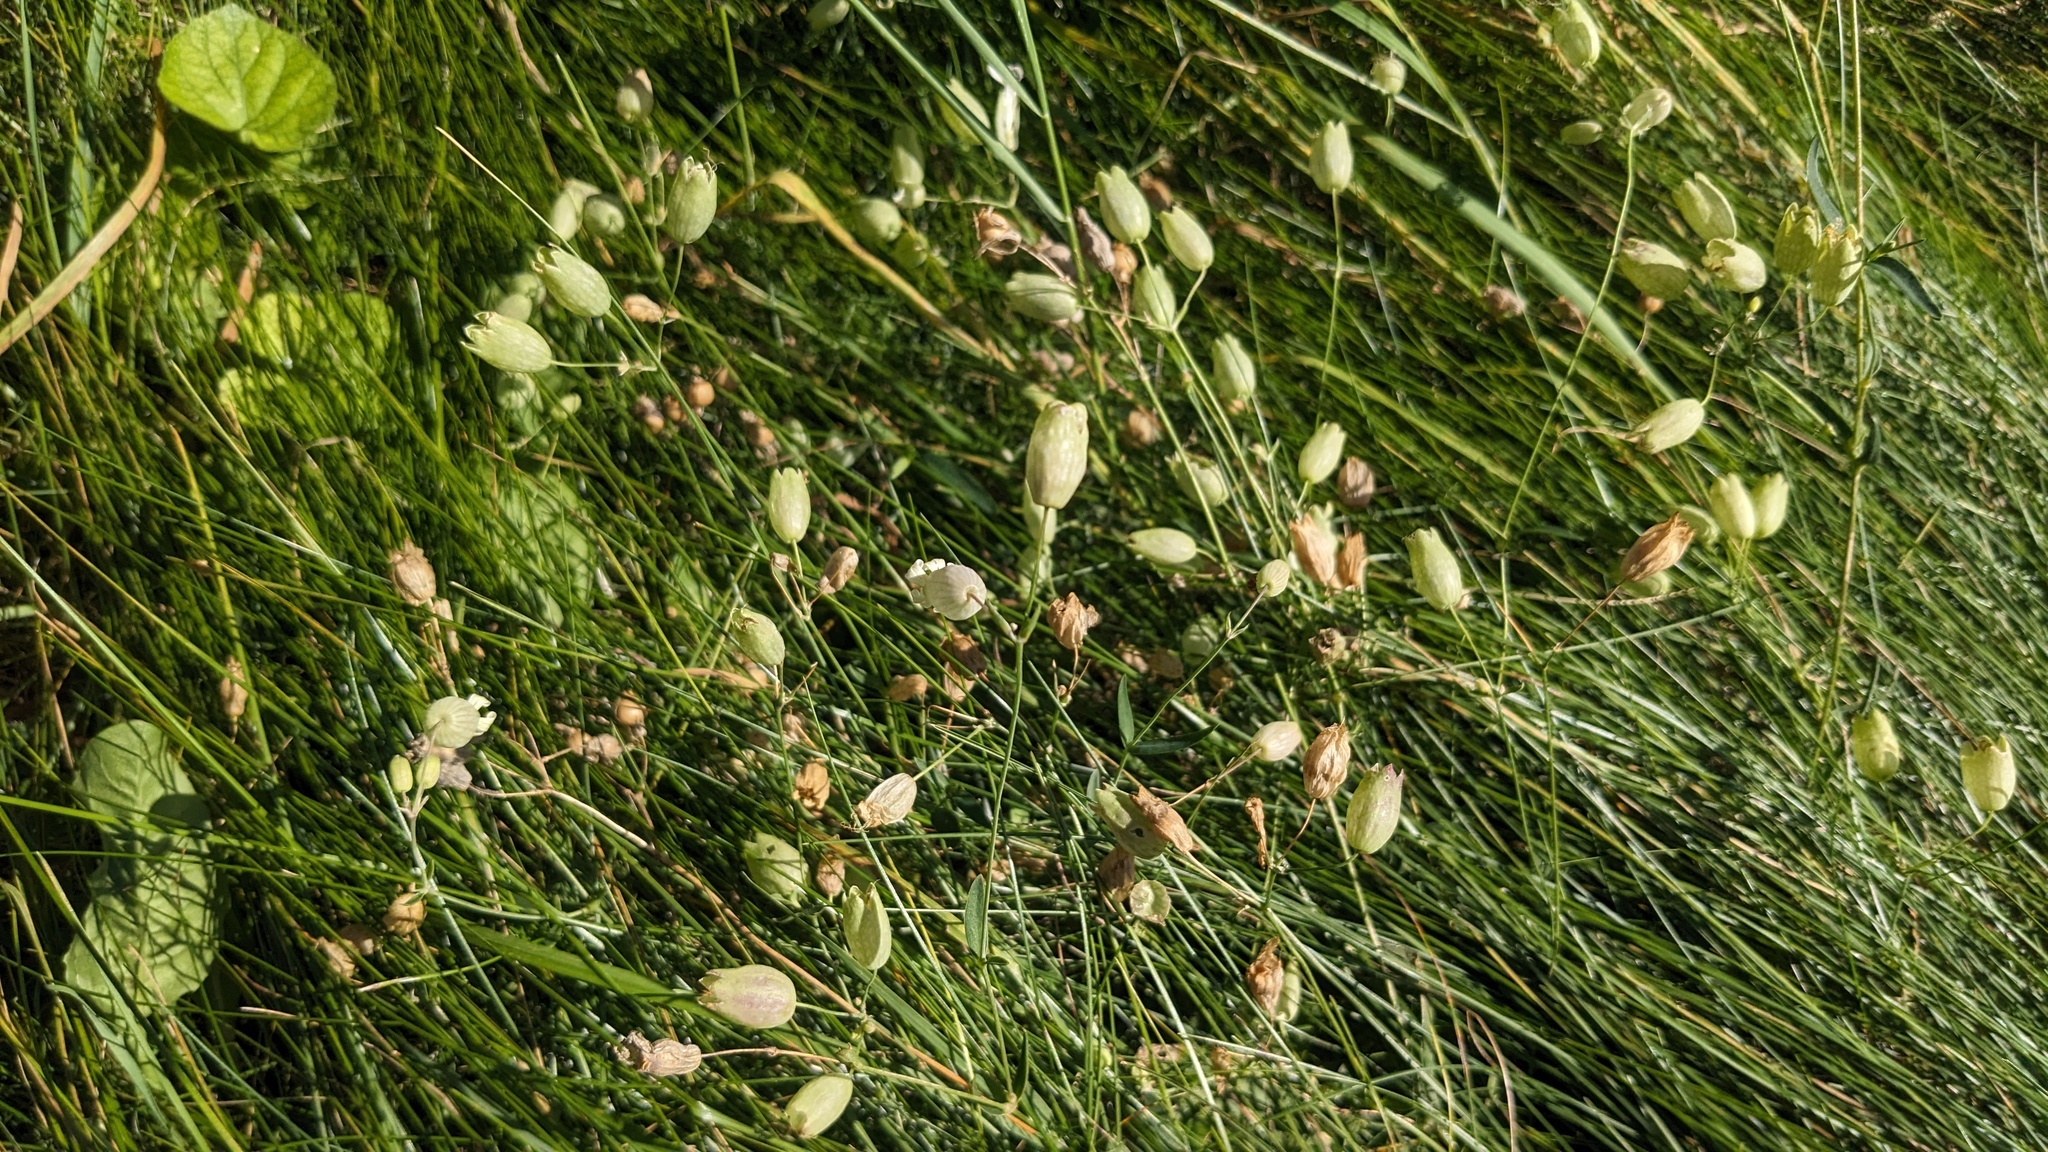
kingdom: Plantae
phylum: Tracheophyta
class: Magnoliopsida
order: Caryophyllales
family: Caryophyllaceae
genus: Silene
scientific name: Silene vulgaris
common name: Bladder campion
